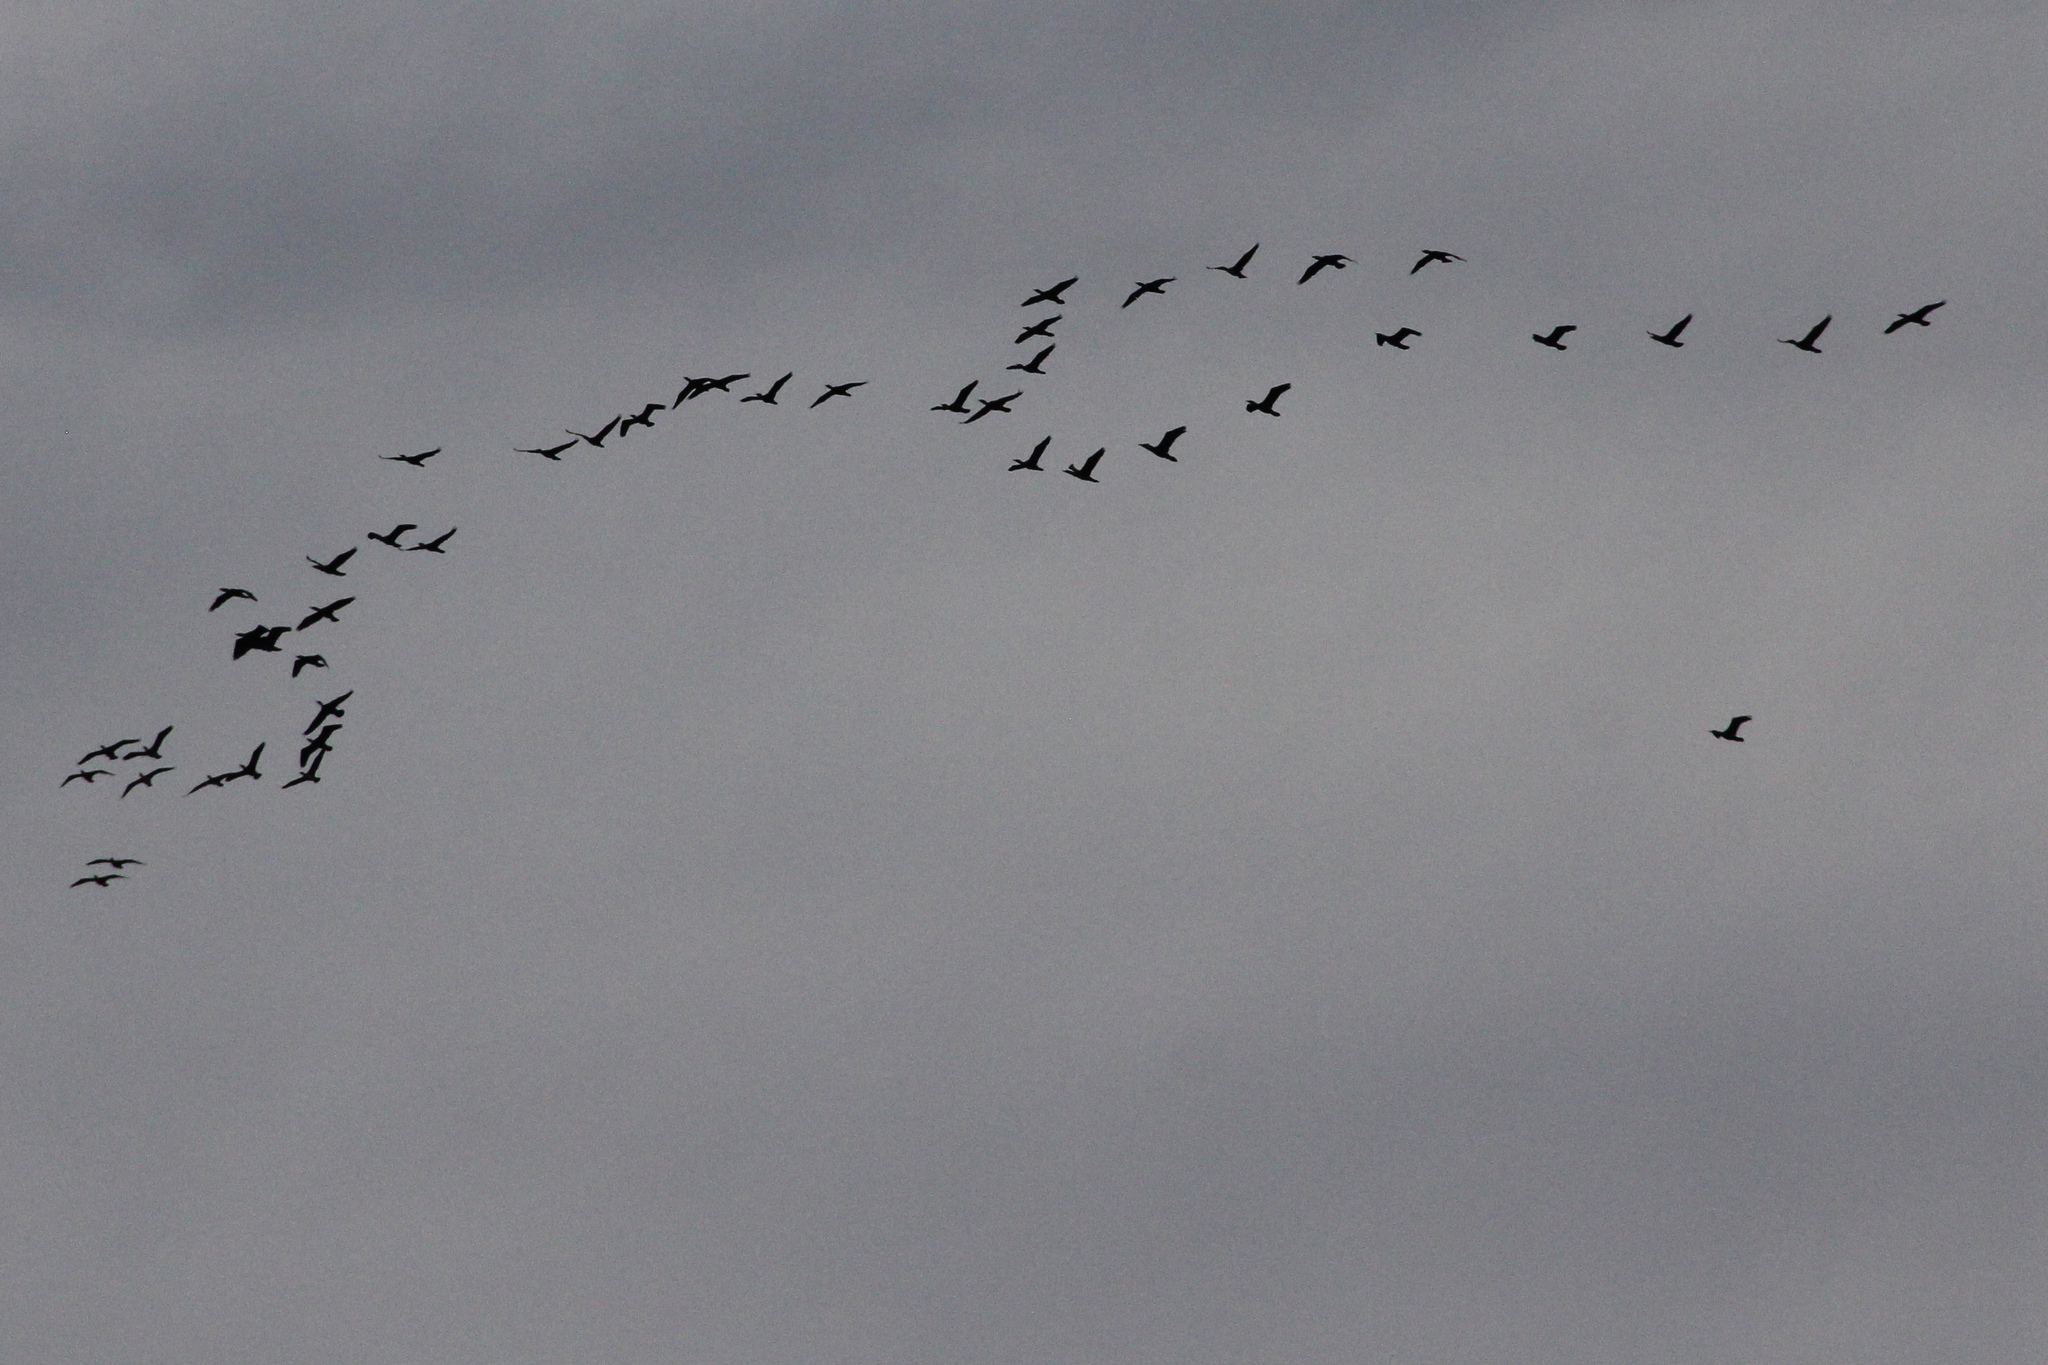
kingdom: Animalia
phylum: Chordata
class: Aves
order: Suliformes
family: Phalacrocoracidae
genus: Phalacrocorax
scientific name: Phalacrocorax carbo
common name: Great cormorant
